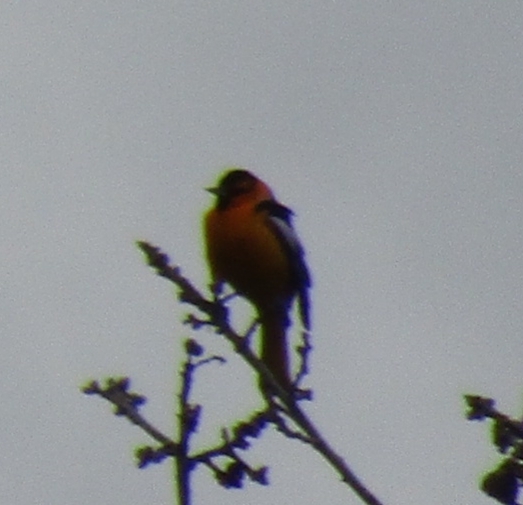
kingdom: Animalia
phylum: Chordata
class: Aves
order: Passeriformes
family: Icteridae
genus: Icterus
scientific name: Icterus bullockii
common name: Bullock's oriole
